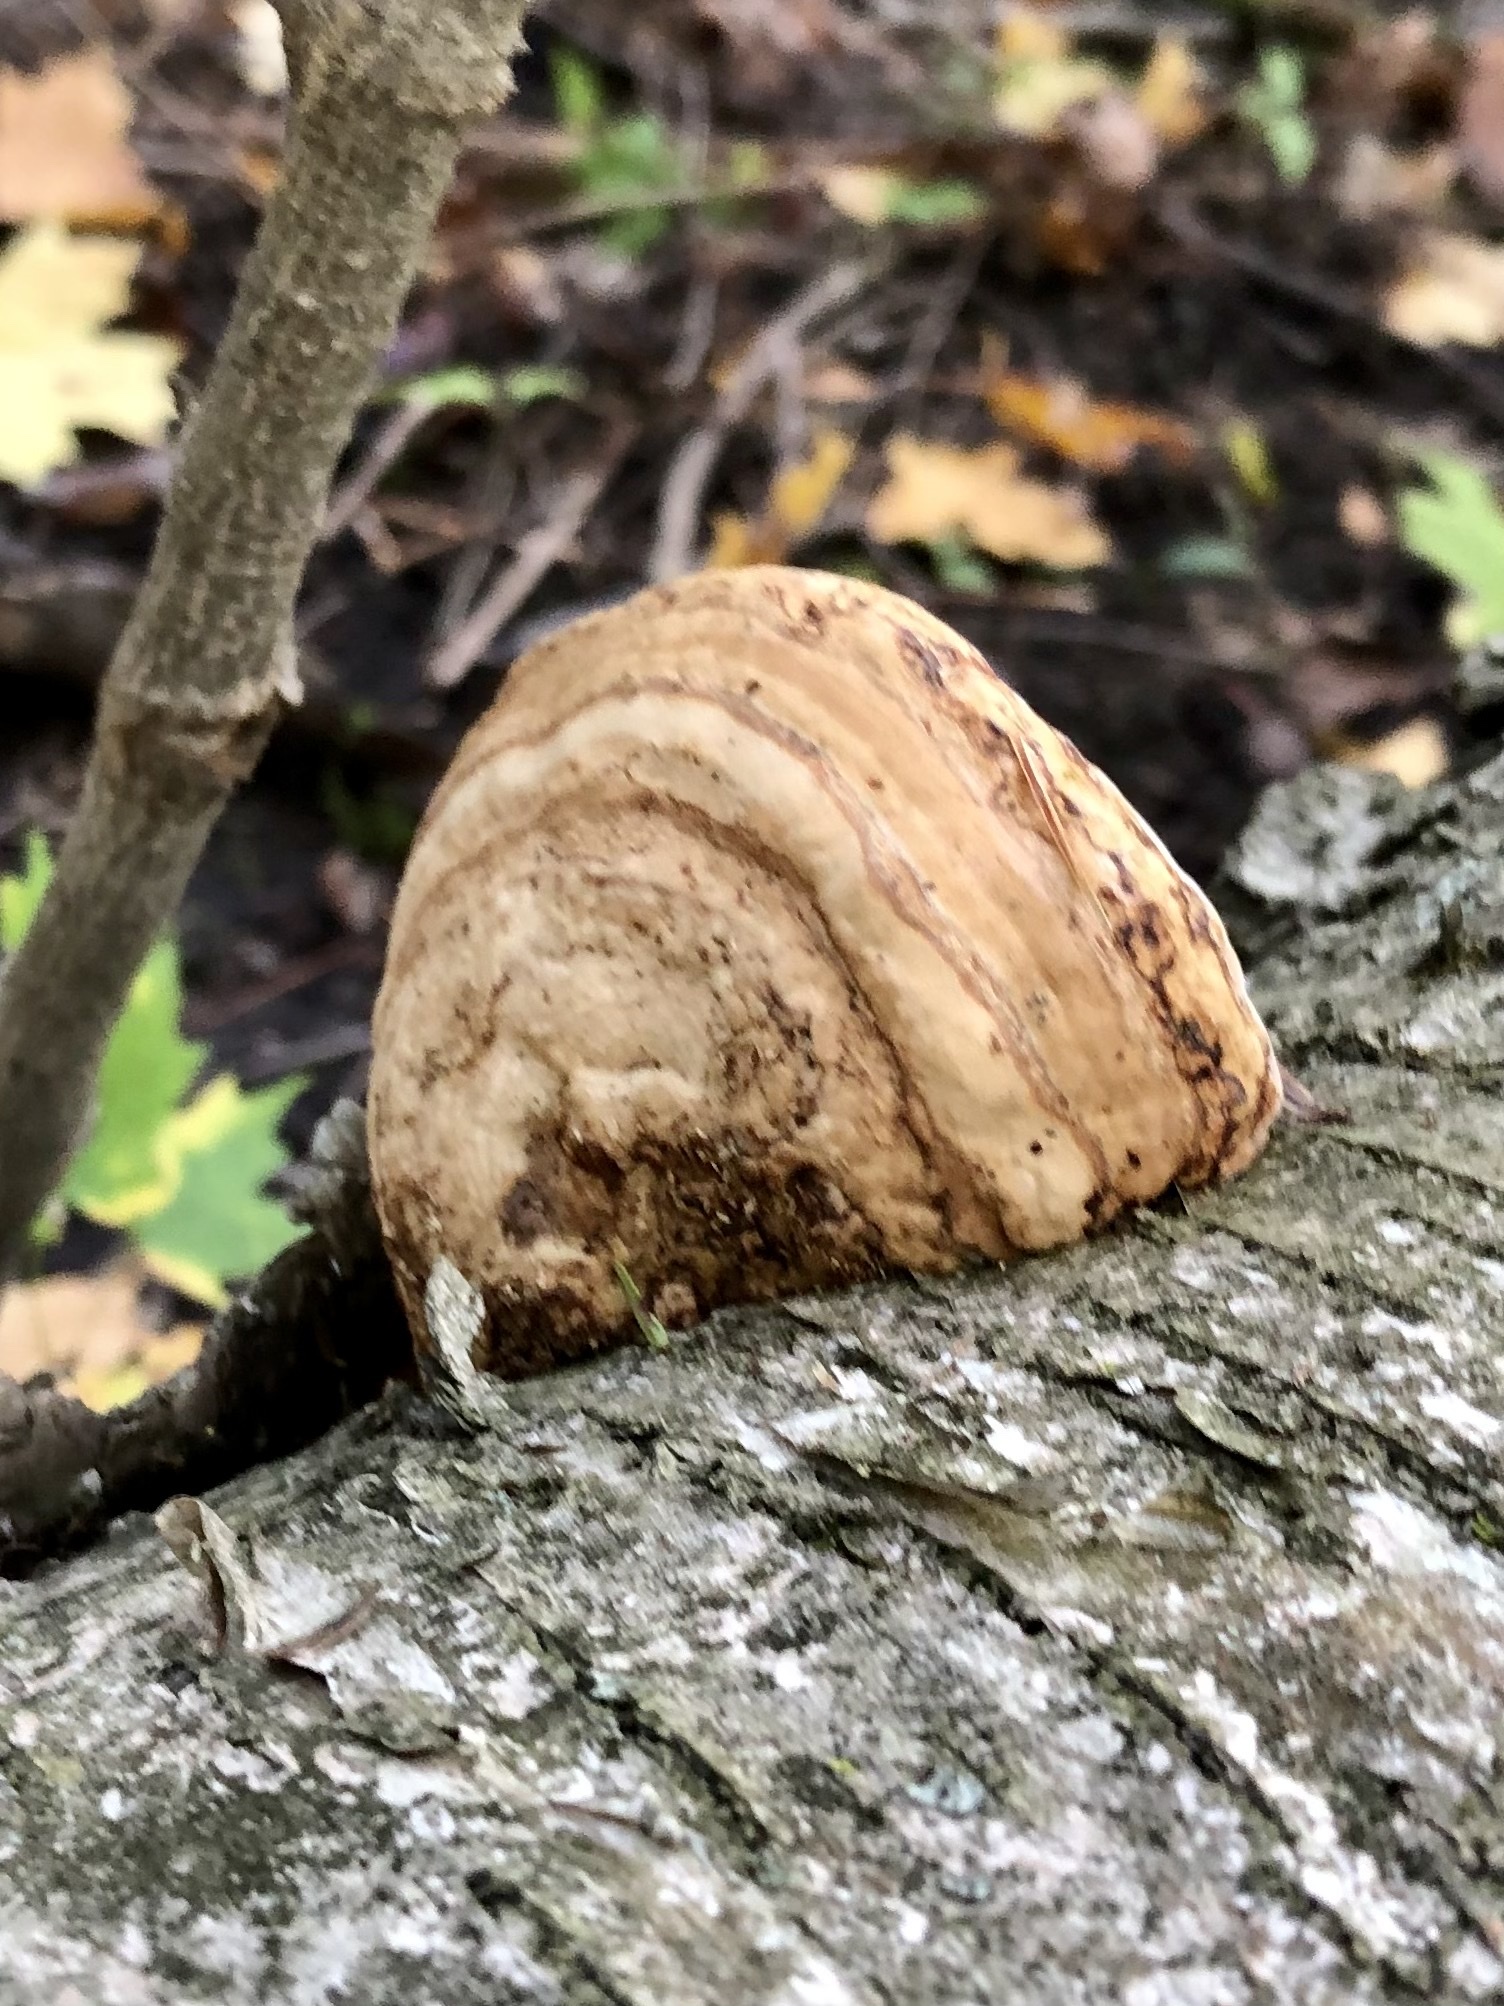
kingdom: Fungi
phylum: Basidiomycota
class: Agaricomycetes
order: Polyporales
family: Polyporaceae
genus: Fomes
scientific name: Fomes fomentarius
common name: Hoof fungus
